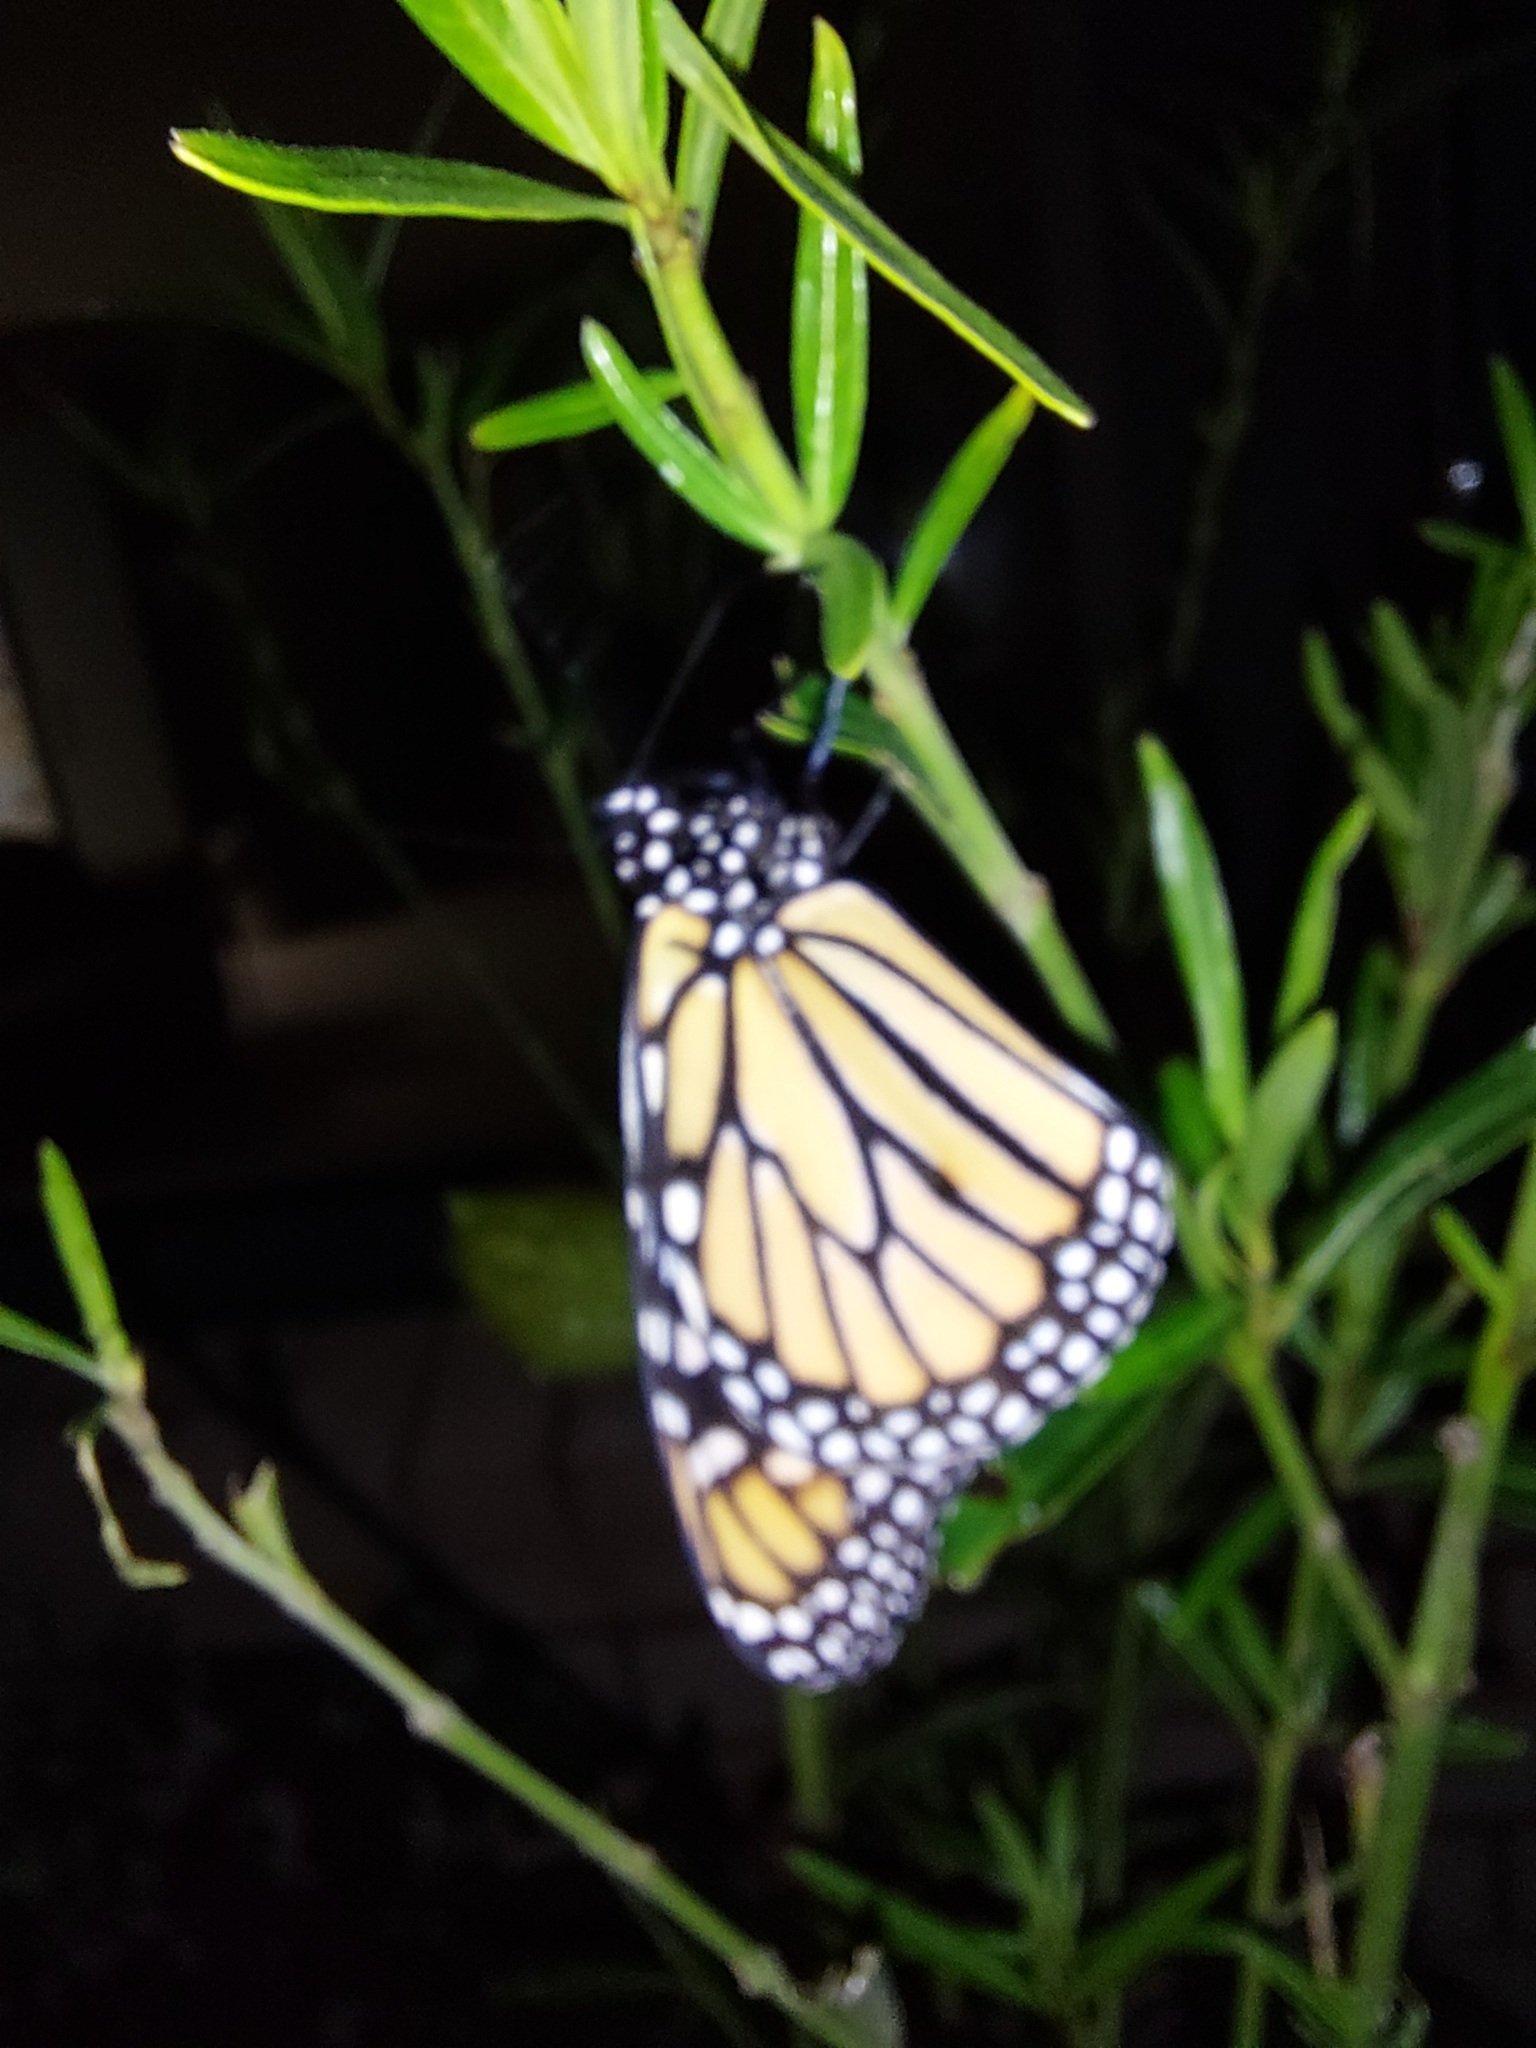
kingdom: Animalia
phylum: Arthropoda
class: Insecta
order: Lepidoptera
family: Nymphalidae
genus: Danaus
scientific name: Danaus plexippus
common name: Monarch
